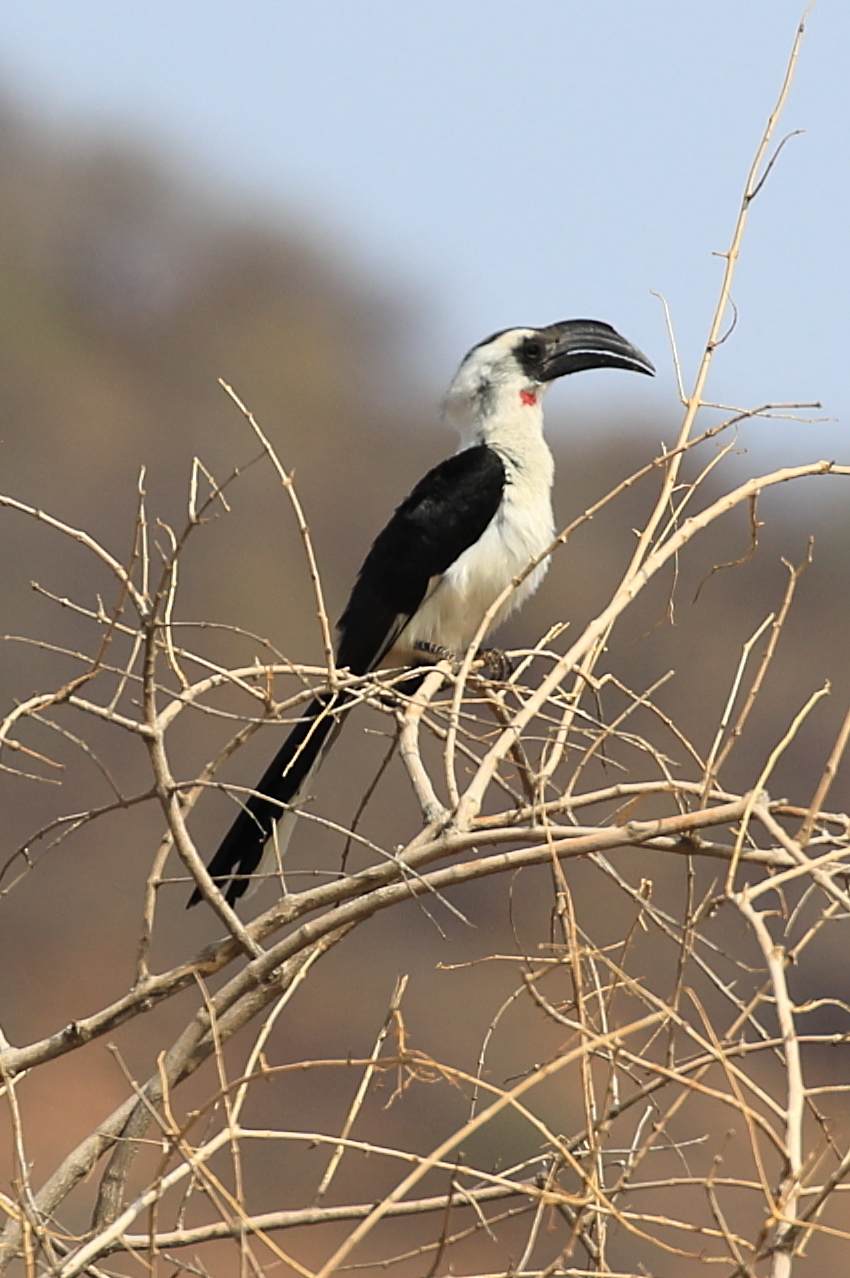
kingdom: Animalia
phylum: Chordata
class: Aves
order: Bucerotiformes
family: Bucerotidae
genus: Tockus
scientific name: Tockus deckeni
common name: Von der decken's hornbill
